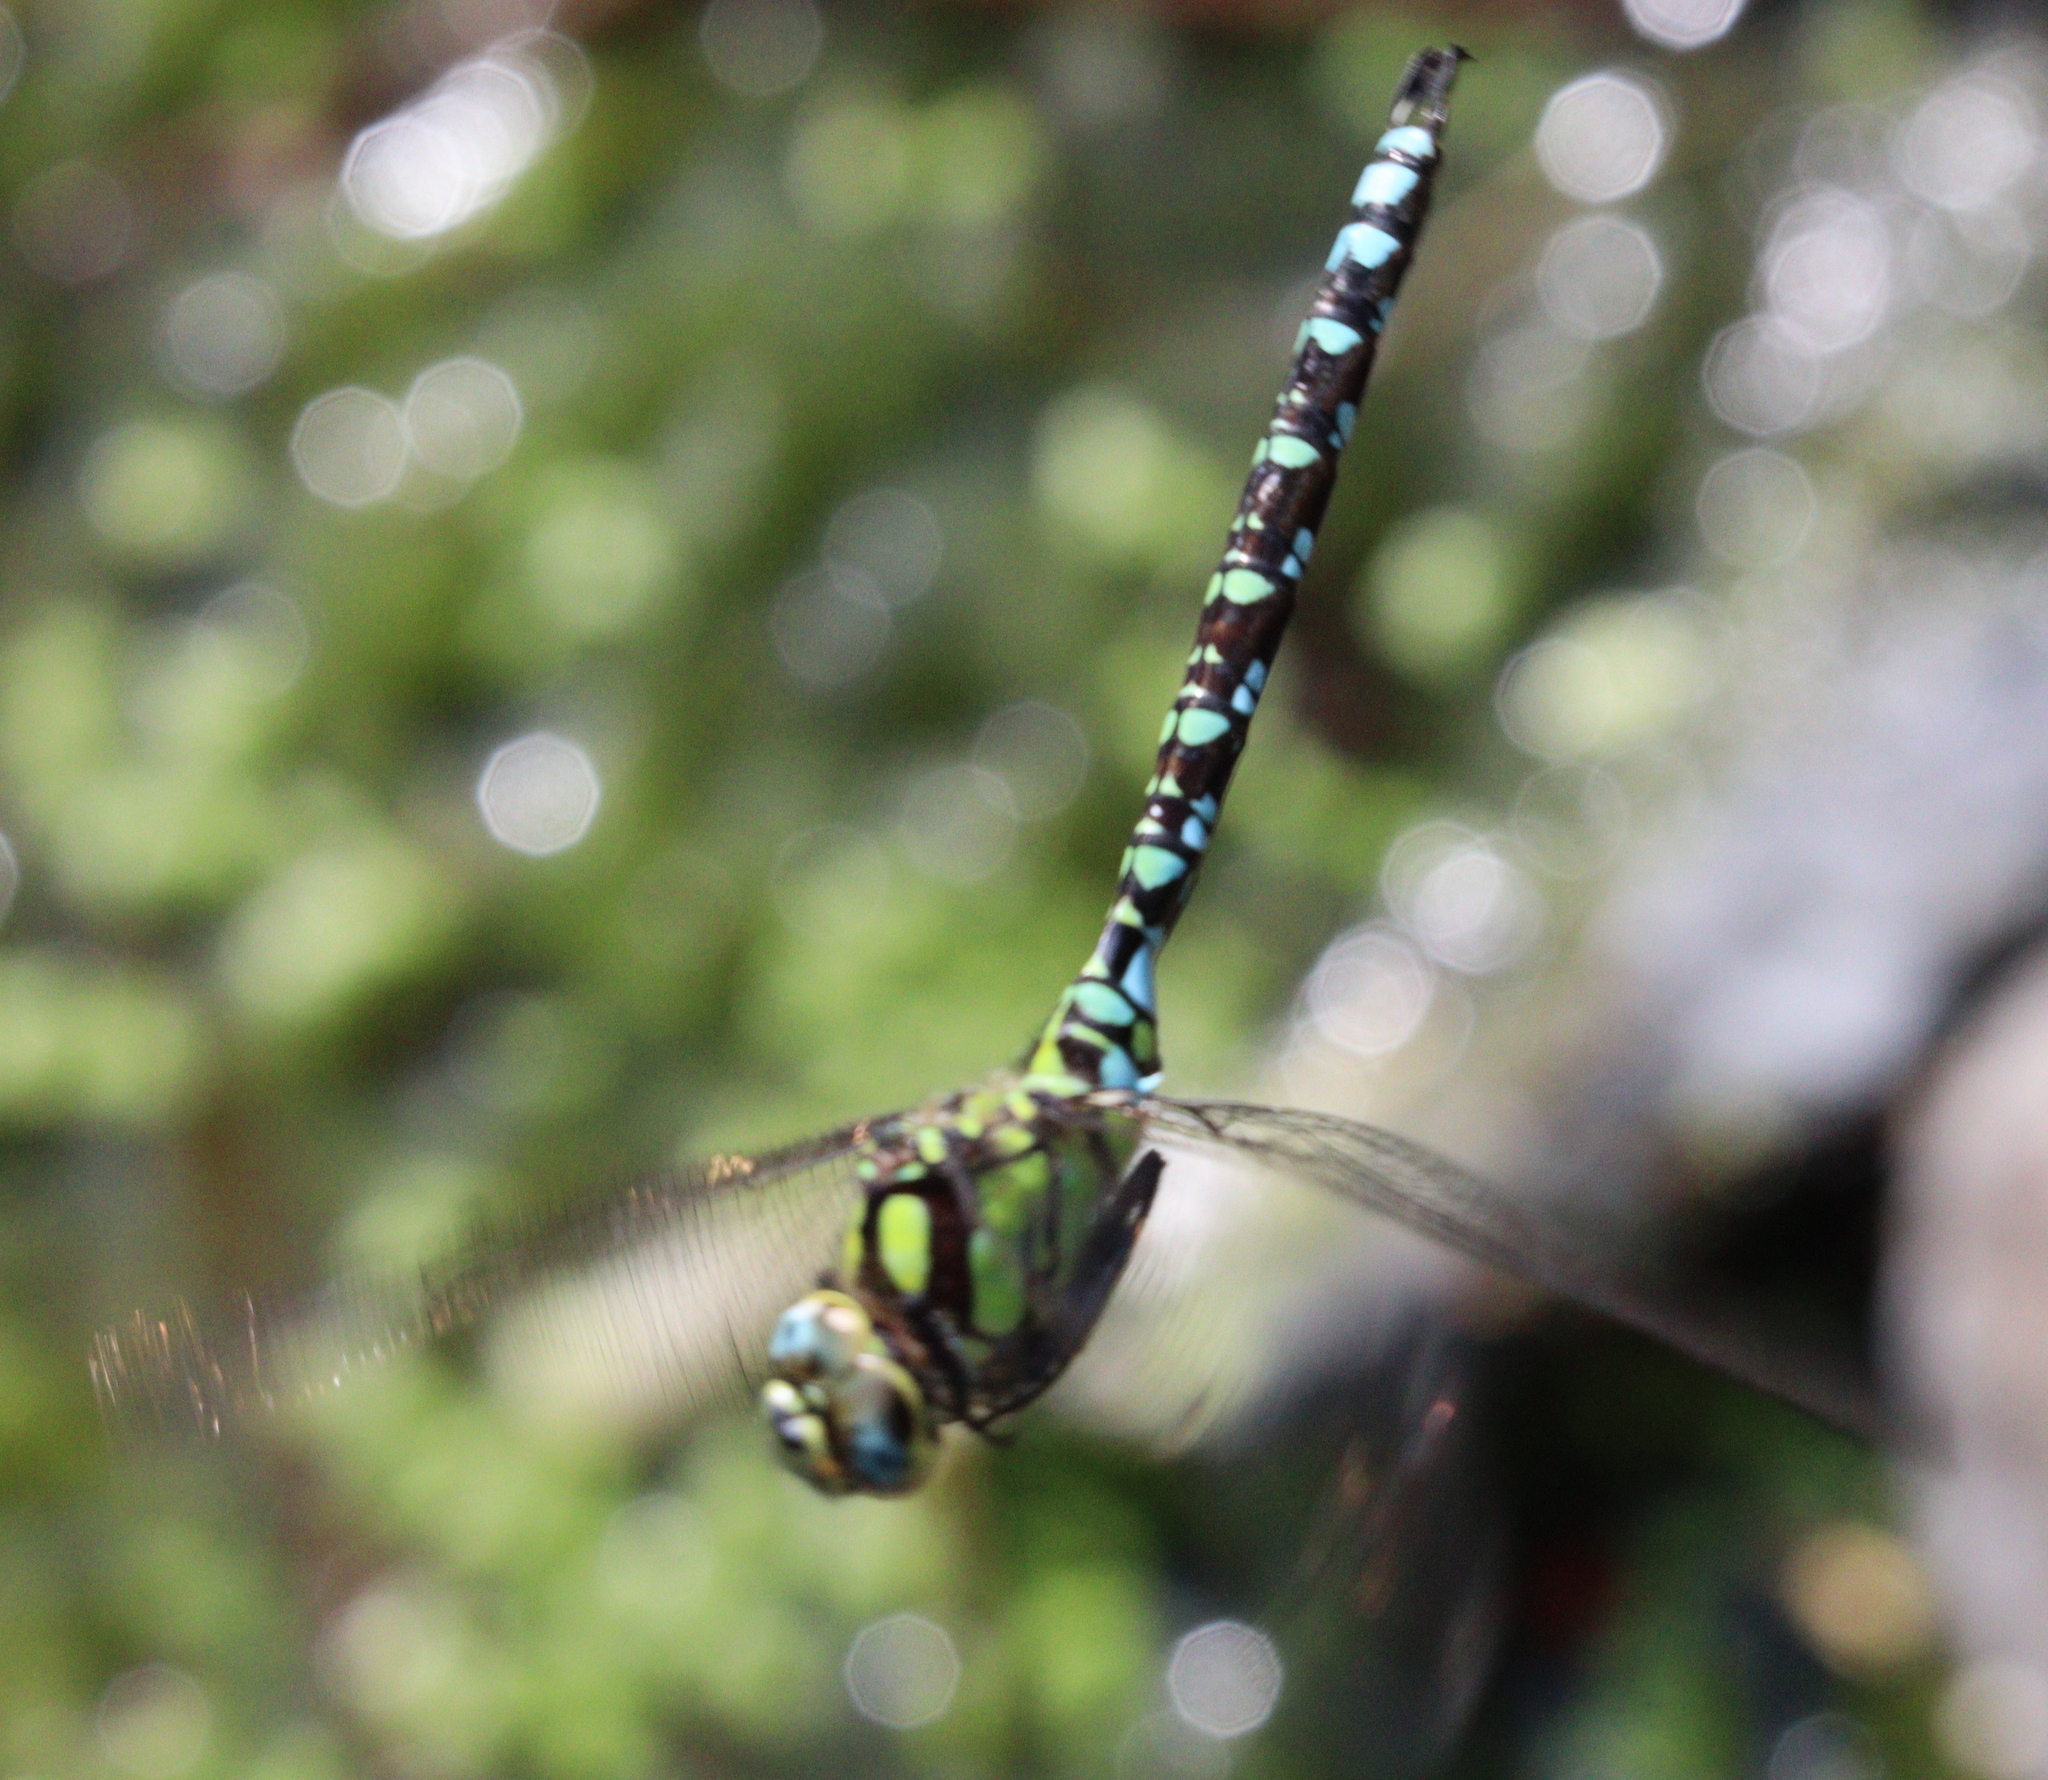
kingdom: Animalia
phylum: Arthropoda
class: Insecta
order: Odonata
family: Aeshnidae
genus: Aeshna
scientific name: Aeshna cyanea
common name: Southern hawker
